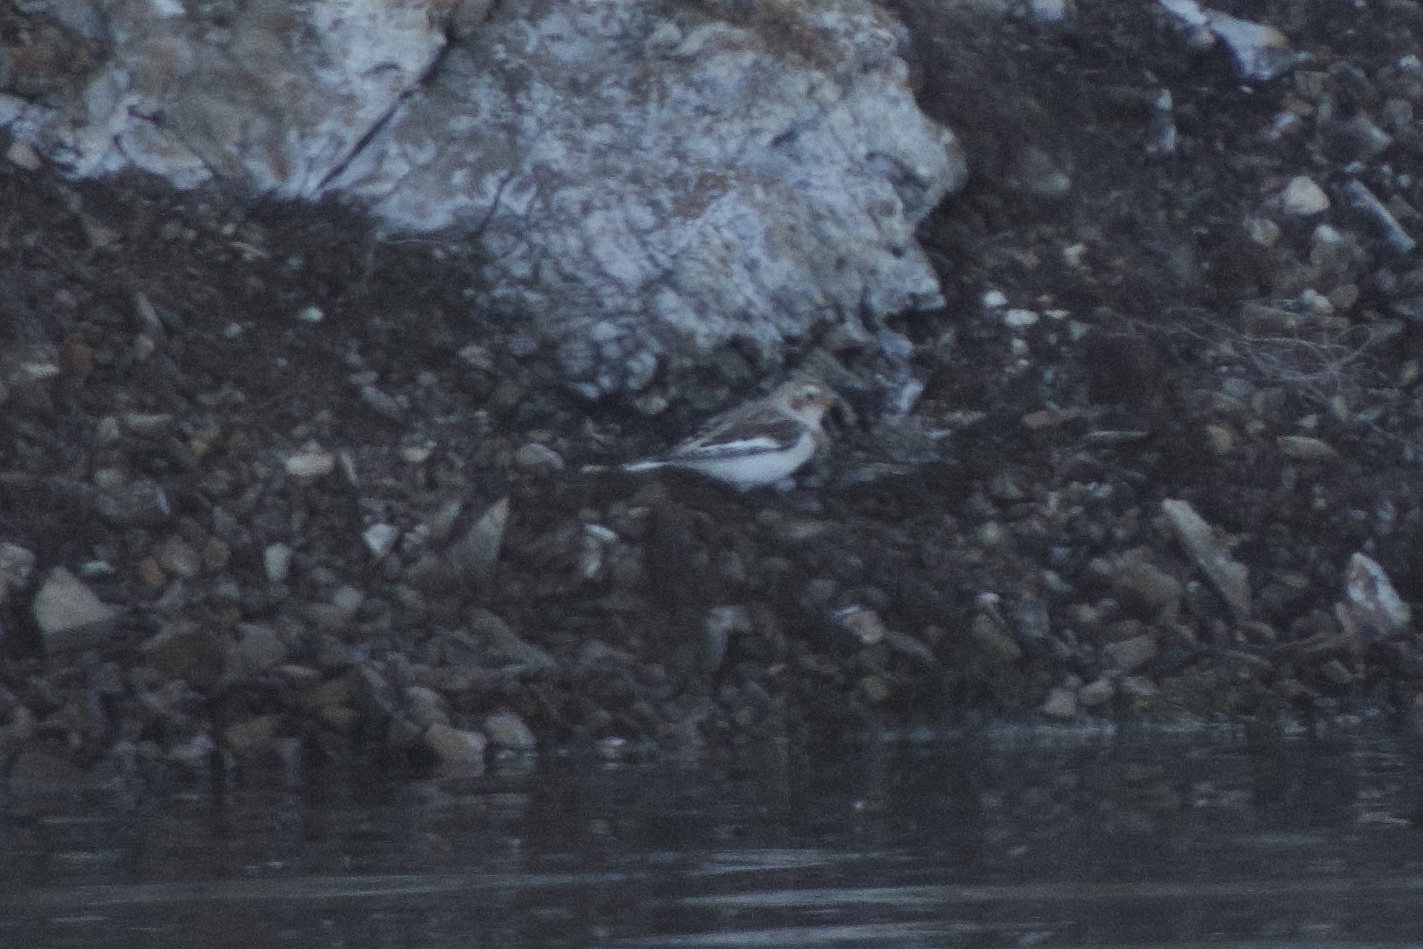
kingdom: Animalia
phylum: Chordata
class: Aves
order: Passeriformes
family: Calcariidae
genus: Plectrophenax
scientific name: Plectrophenax nivalis
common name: Snow bunting
